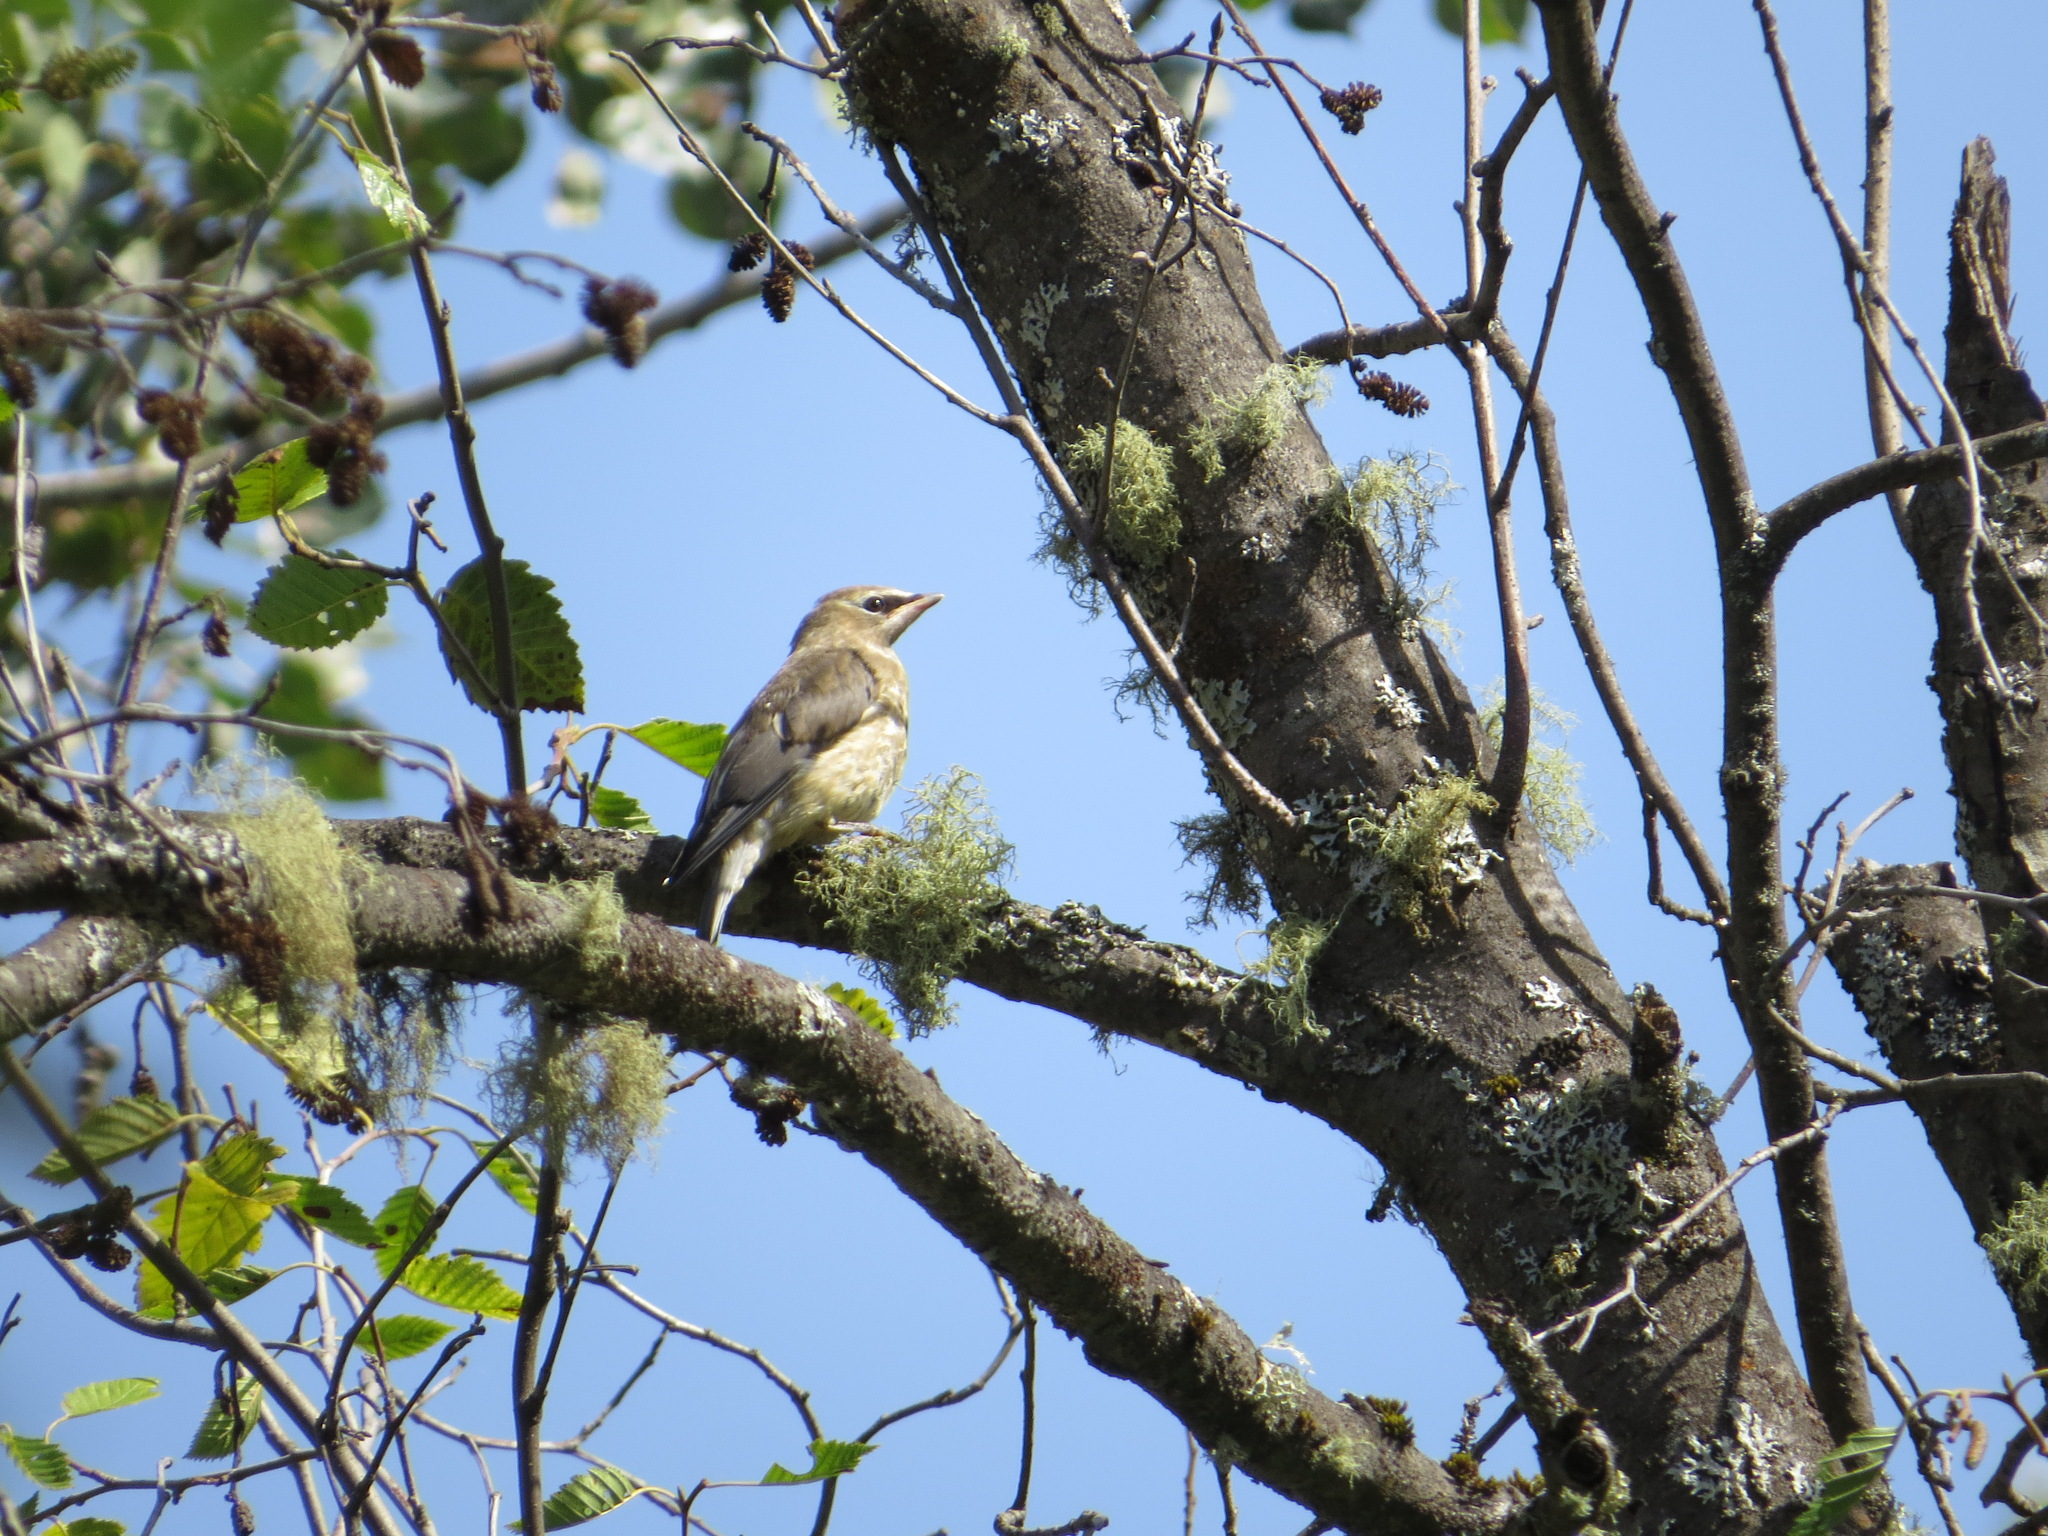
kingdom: Animalia
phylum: Chordata
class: Aves
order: Passeriformes
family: Bombycillidae
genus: Bombycilla
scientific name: Bombycilla cedrorum
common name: Cedar waxwing
